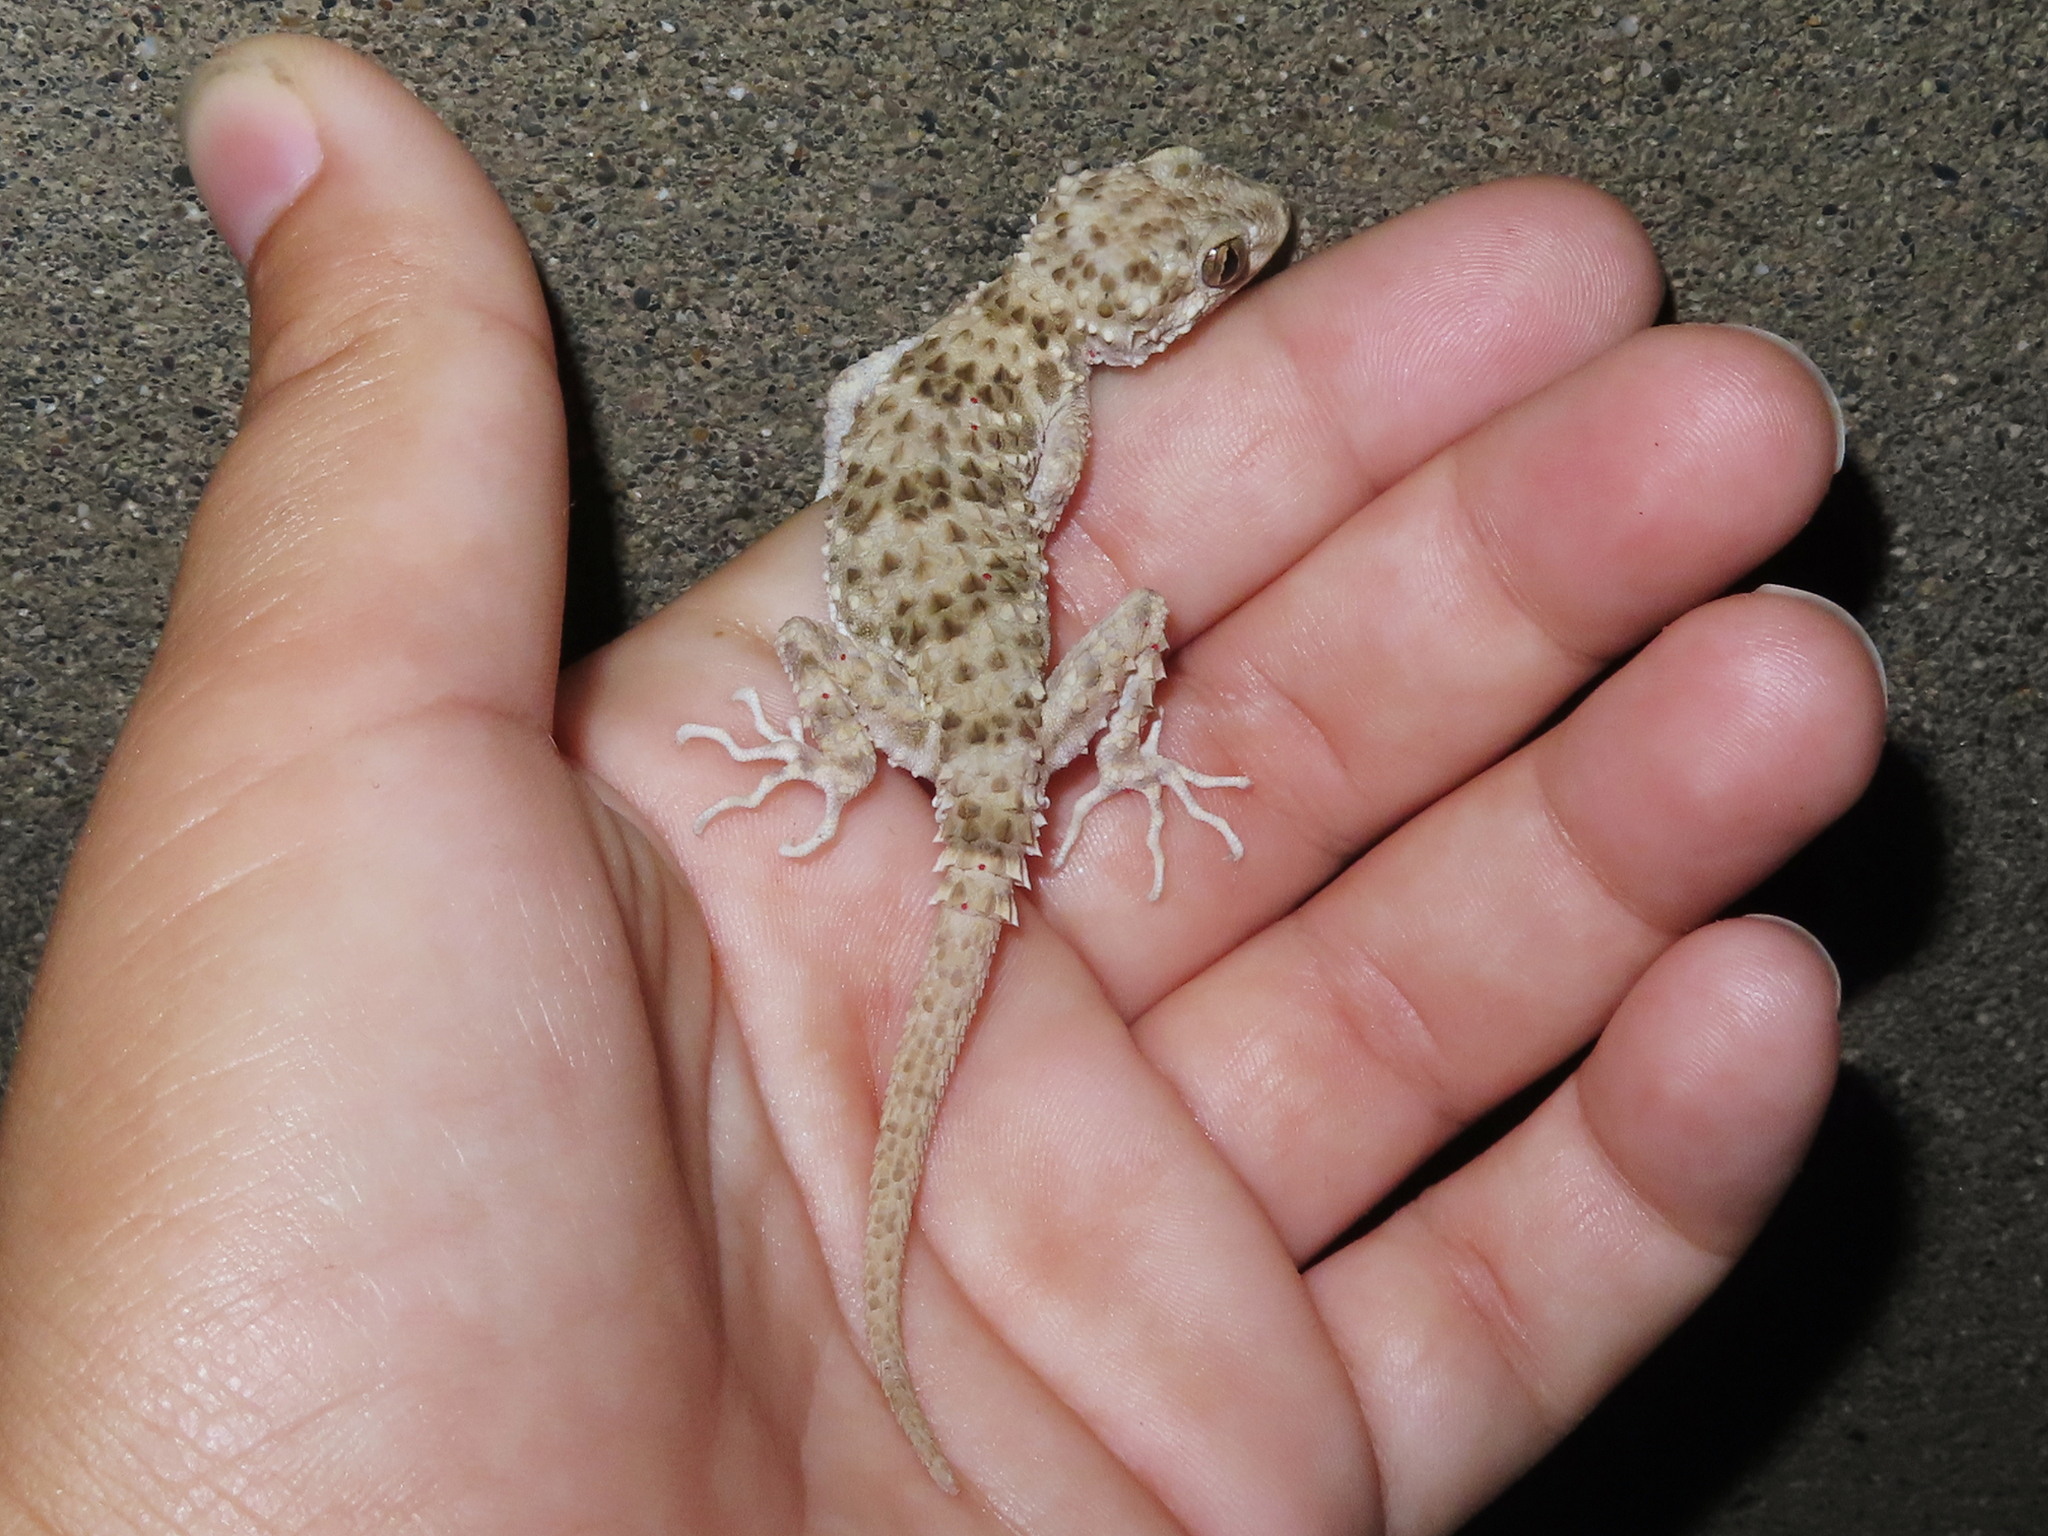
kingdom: Animalia
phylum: Chordata
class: Squamata
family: Gekkonidae
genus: Tenuidactylus
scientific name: Tenuidactylus caspius
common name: Caspian bent-toed gecko
